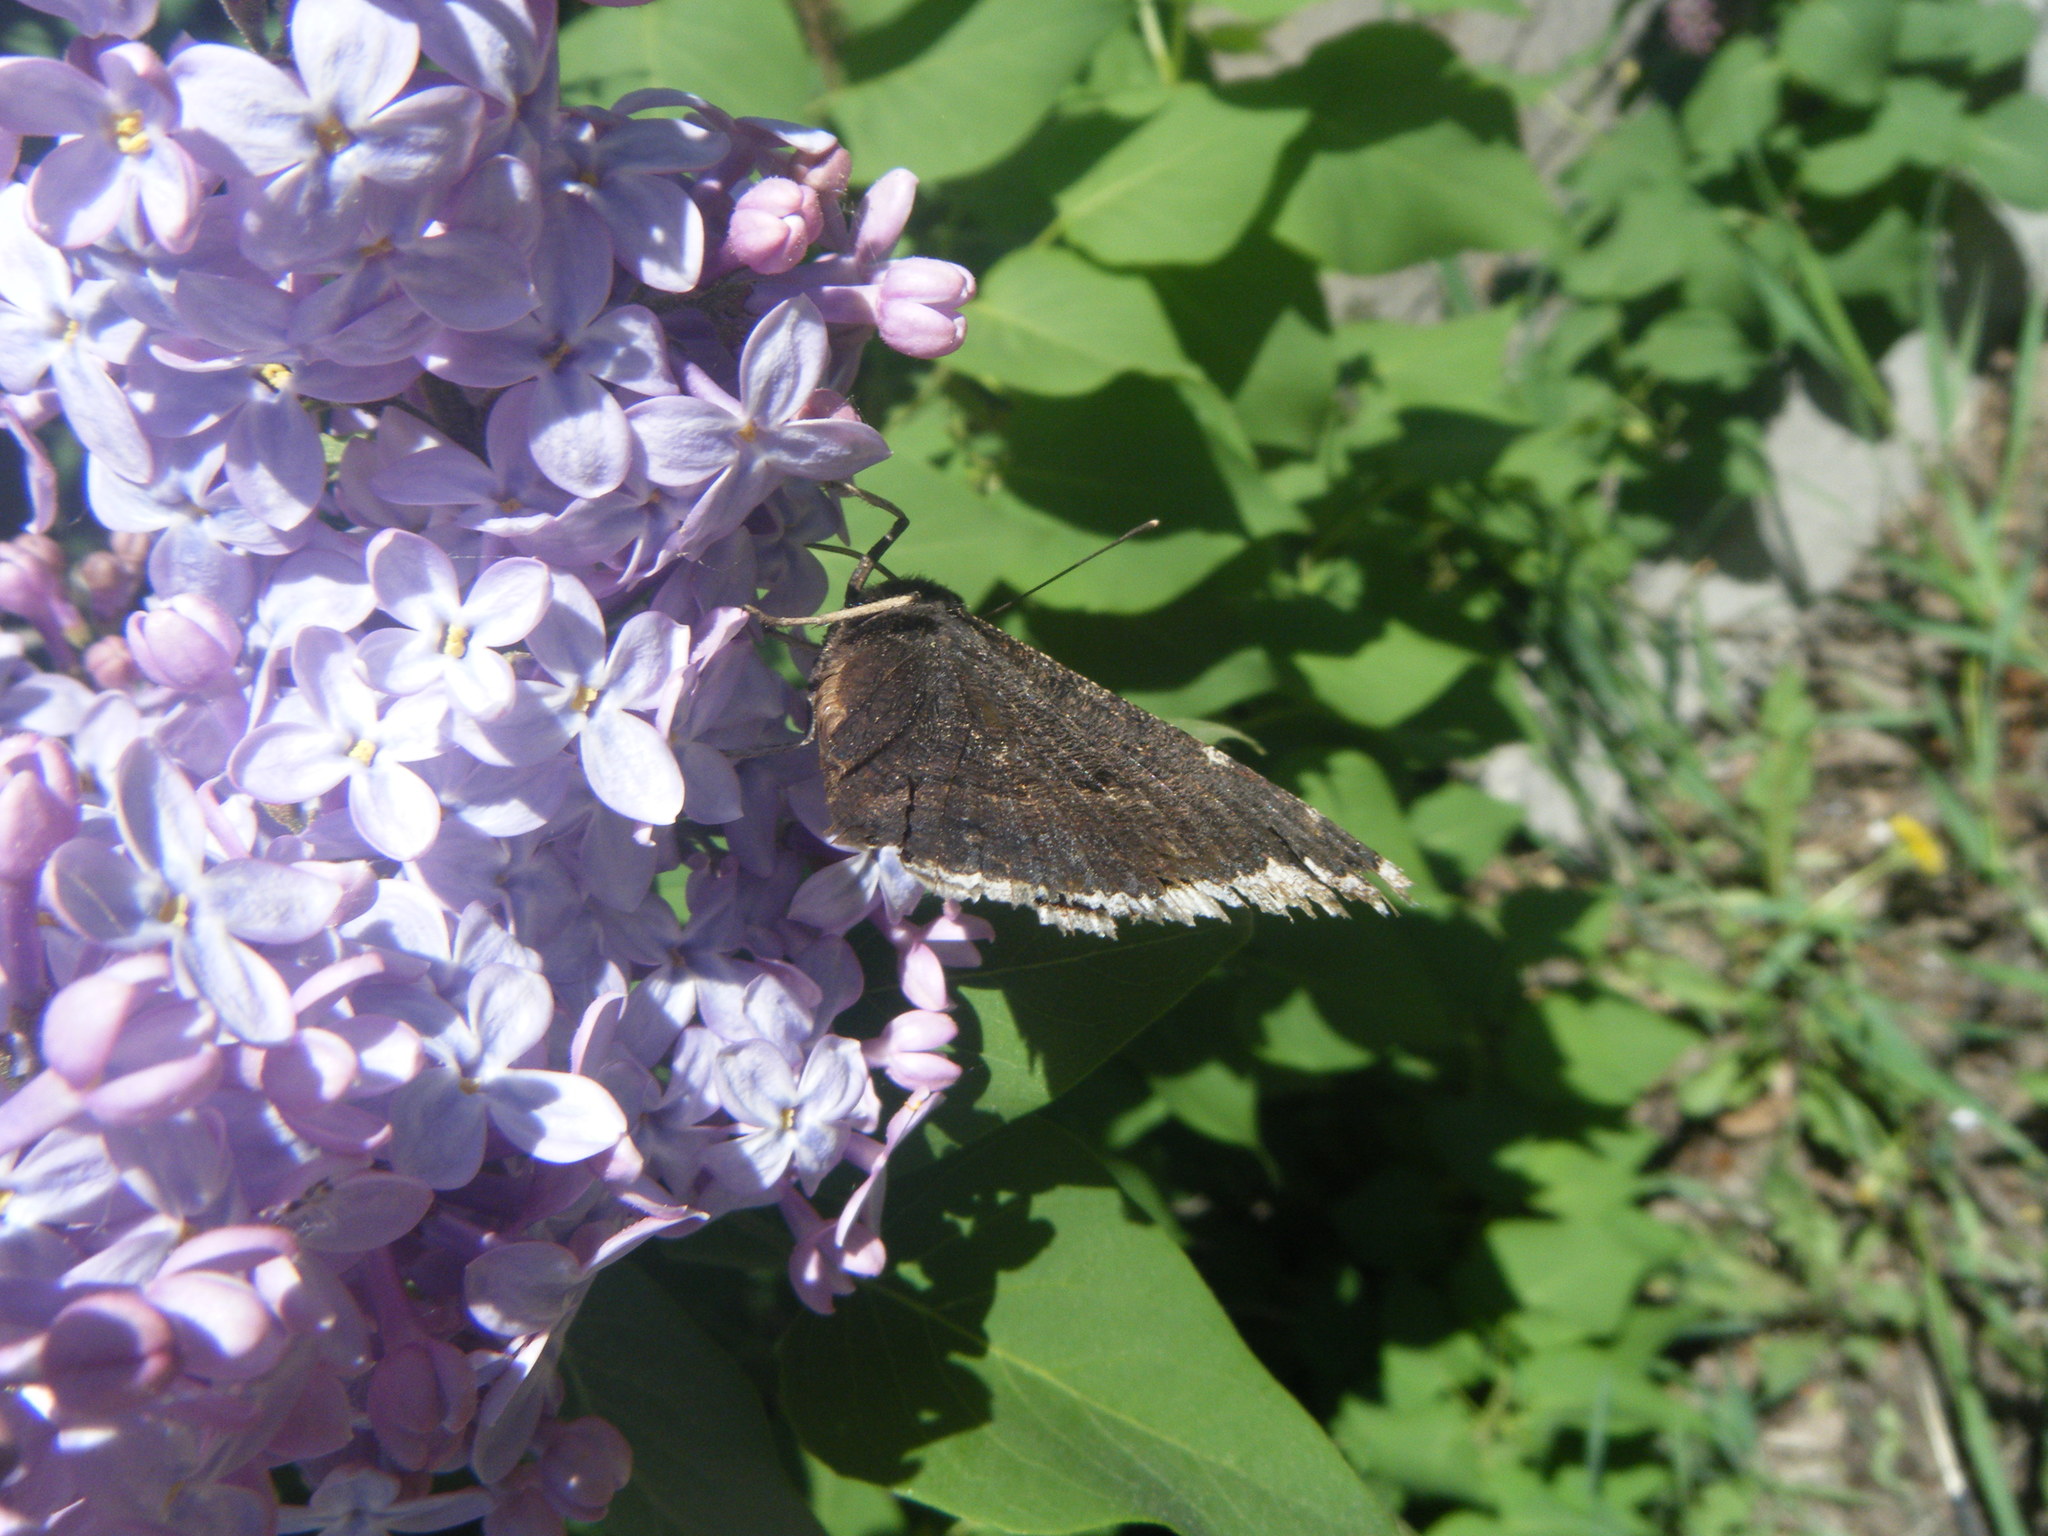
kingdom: Animalia
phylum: Arthropoda
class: Insecta
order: Lepidoptera
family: Nymphalidae
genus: Nymphalis
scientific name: Nymphalis antiopa
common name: Camberwell beauty
